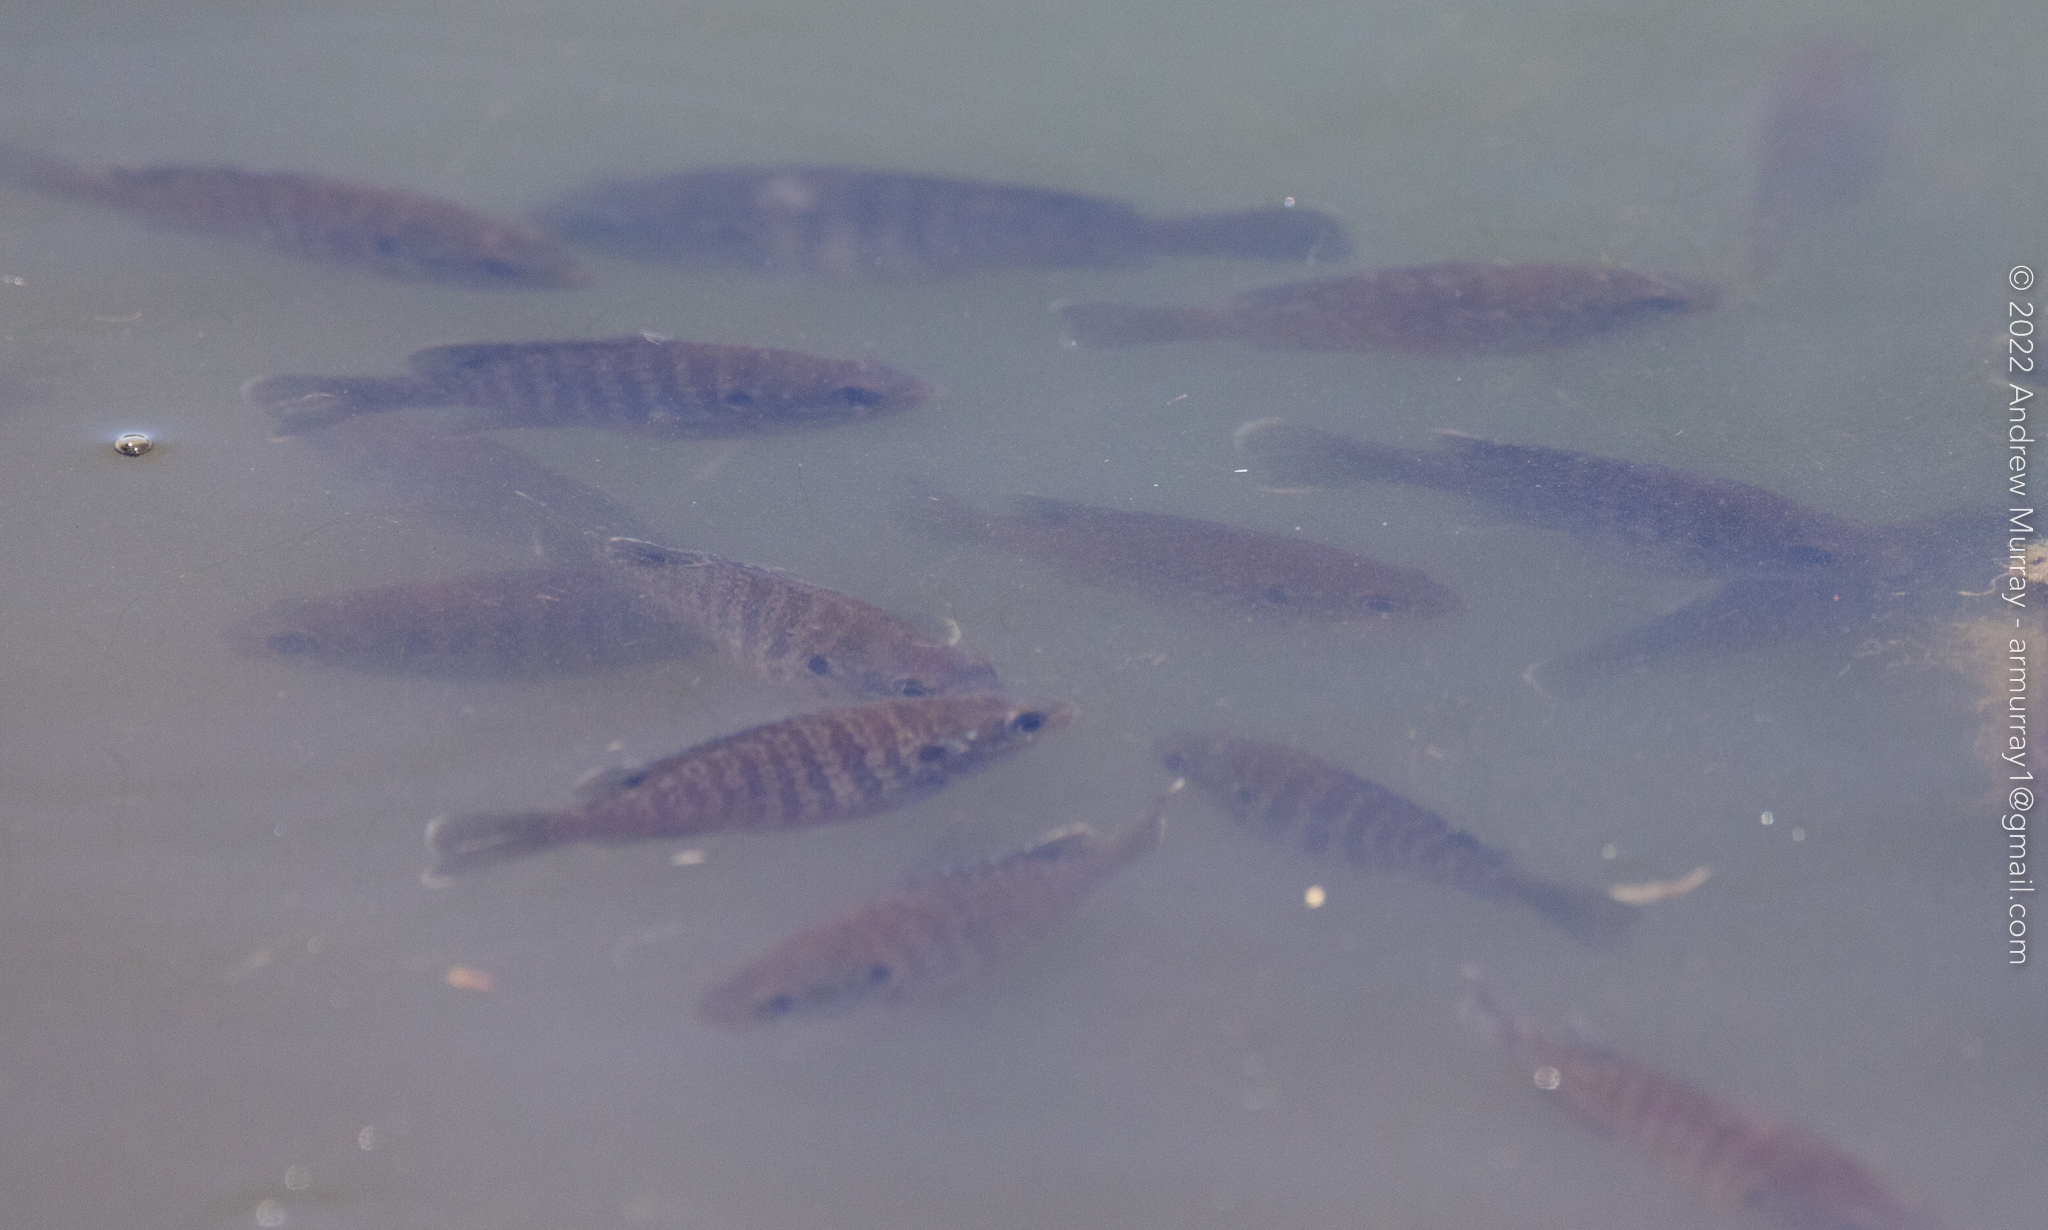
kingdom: Animalia
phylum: Chordata
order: Perciformes
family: Centrarchidae
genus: Lepomis
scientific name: Lepomis gibbosus
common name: Pumpkinseed
